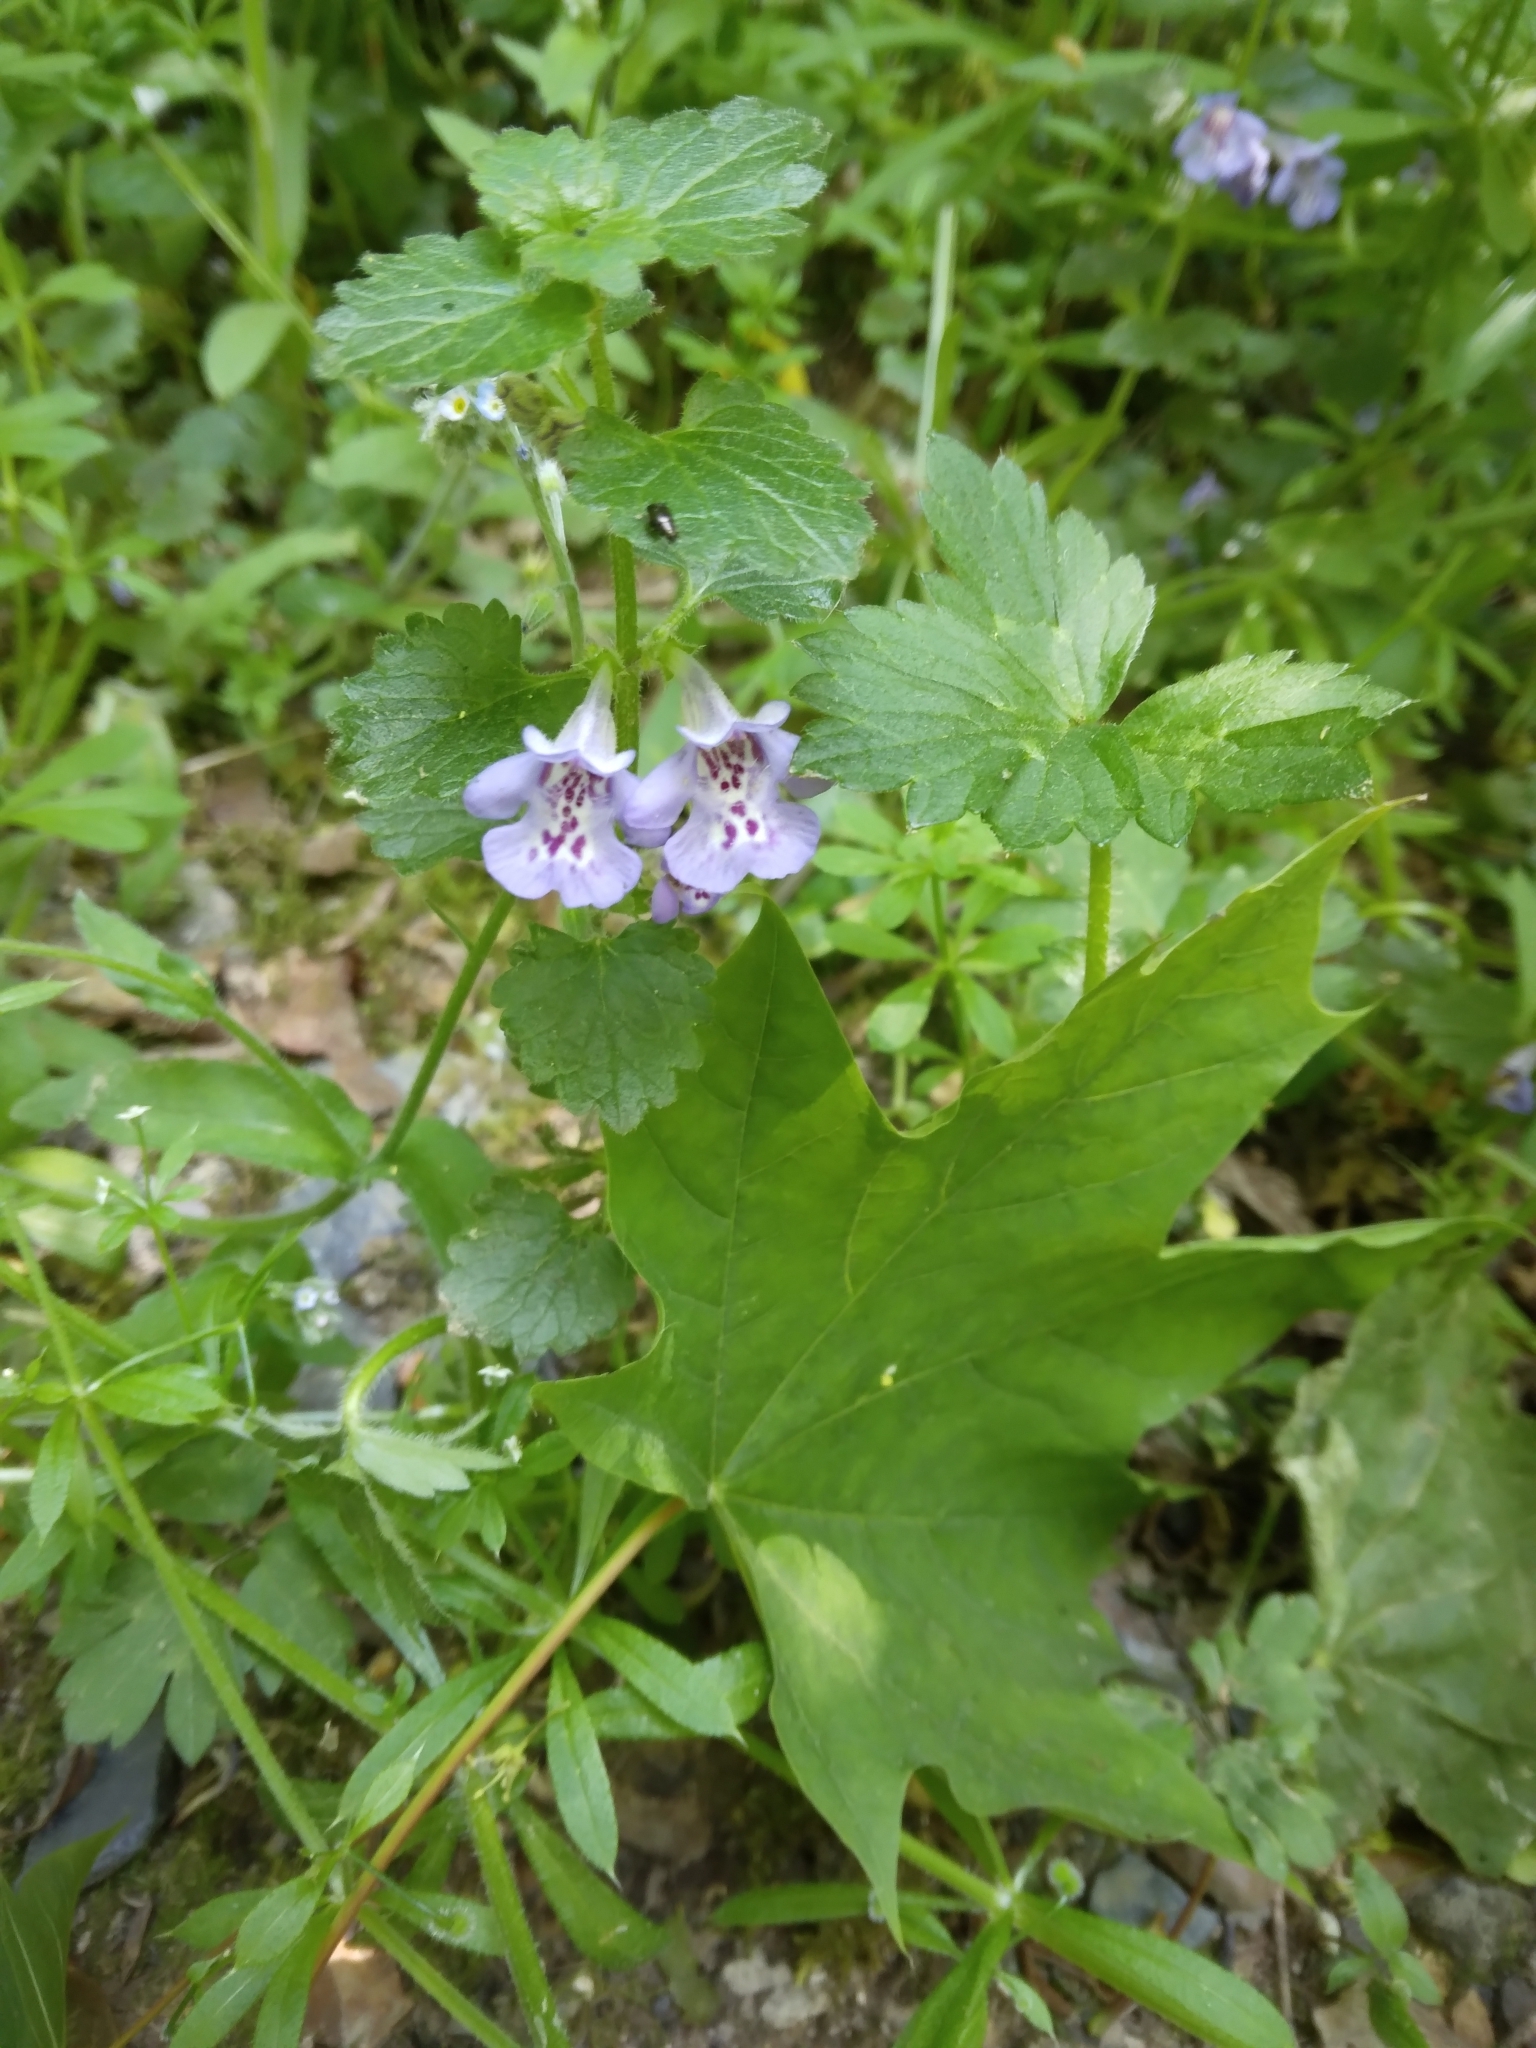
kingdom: Plantae
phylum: Tracheophyta
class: Magnoliopsida
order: Lamiales
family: Lamiaceae
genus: Glechoma
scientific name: Glechoma hederacea
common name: Ground ivy
